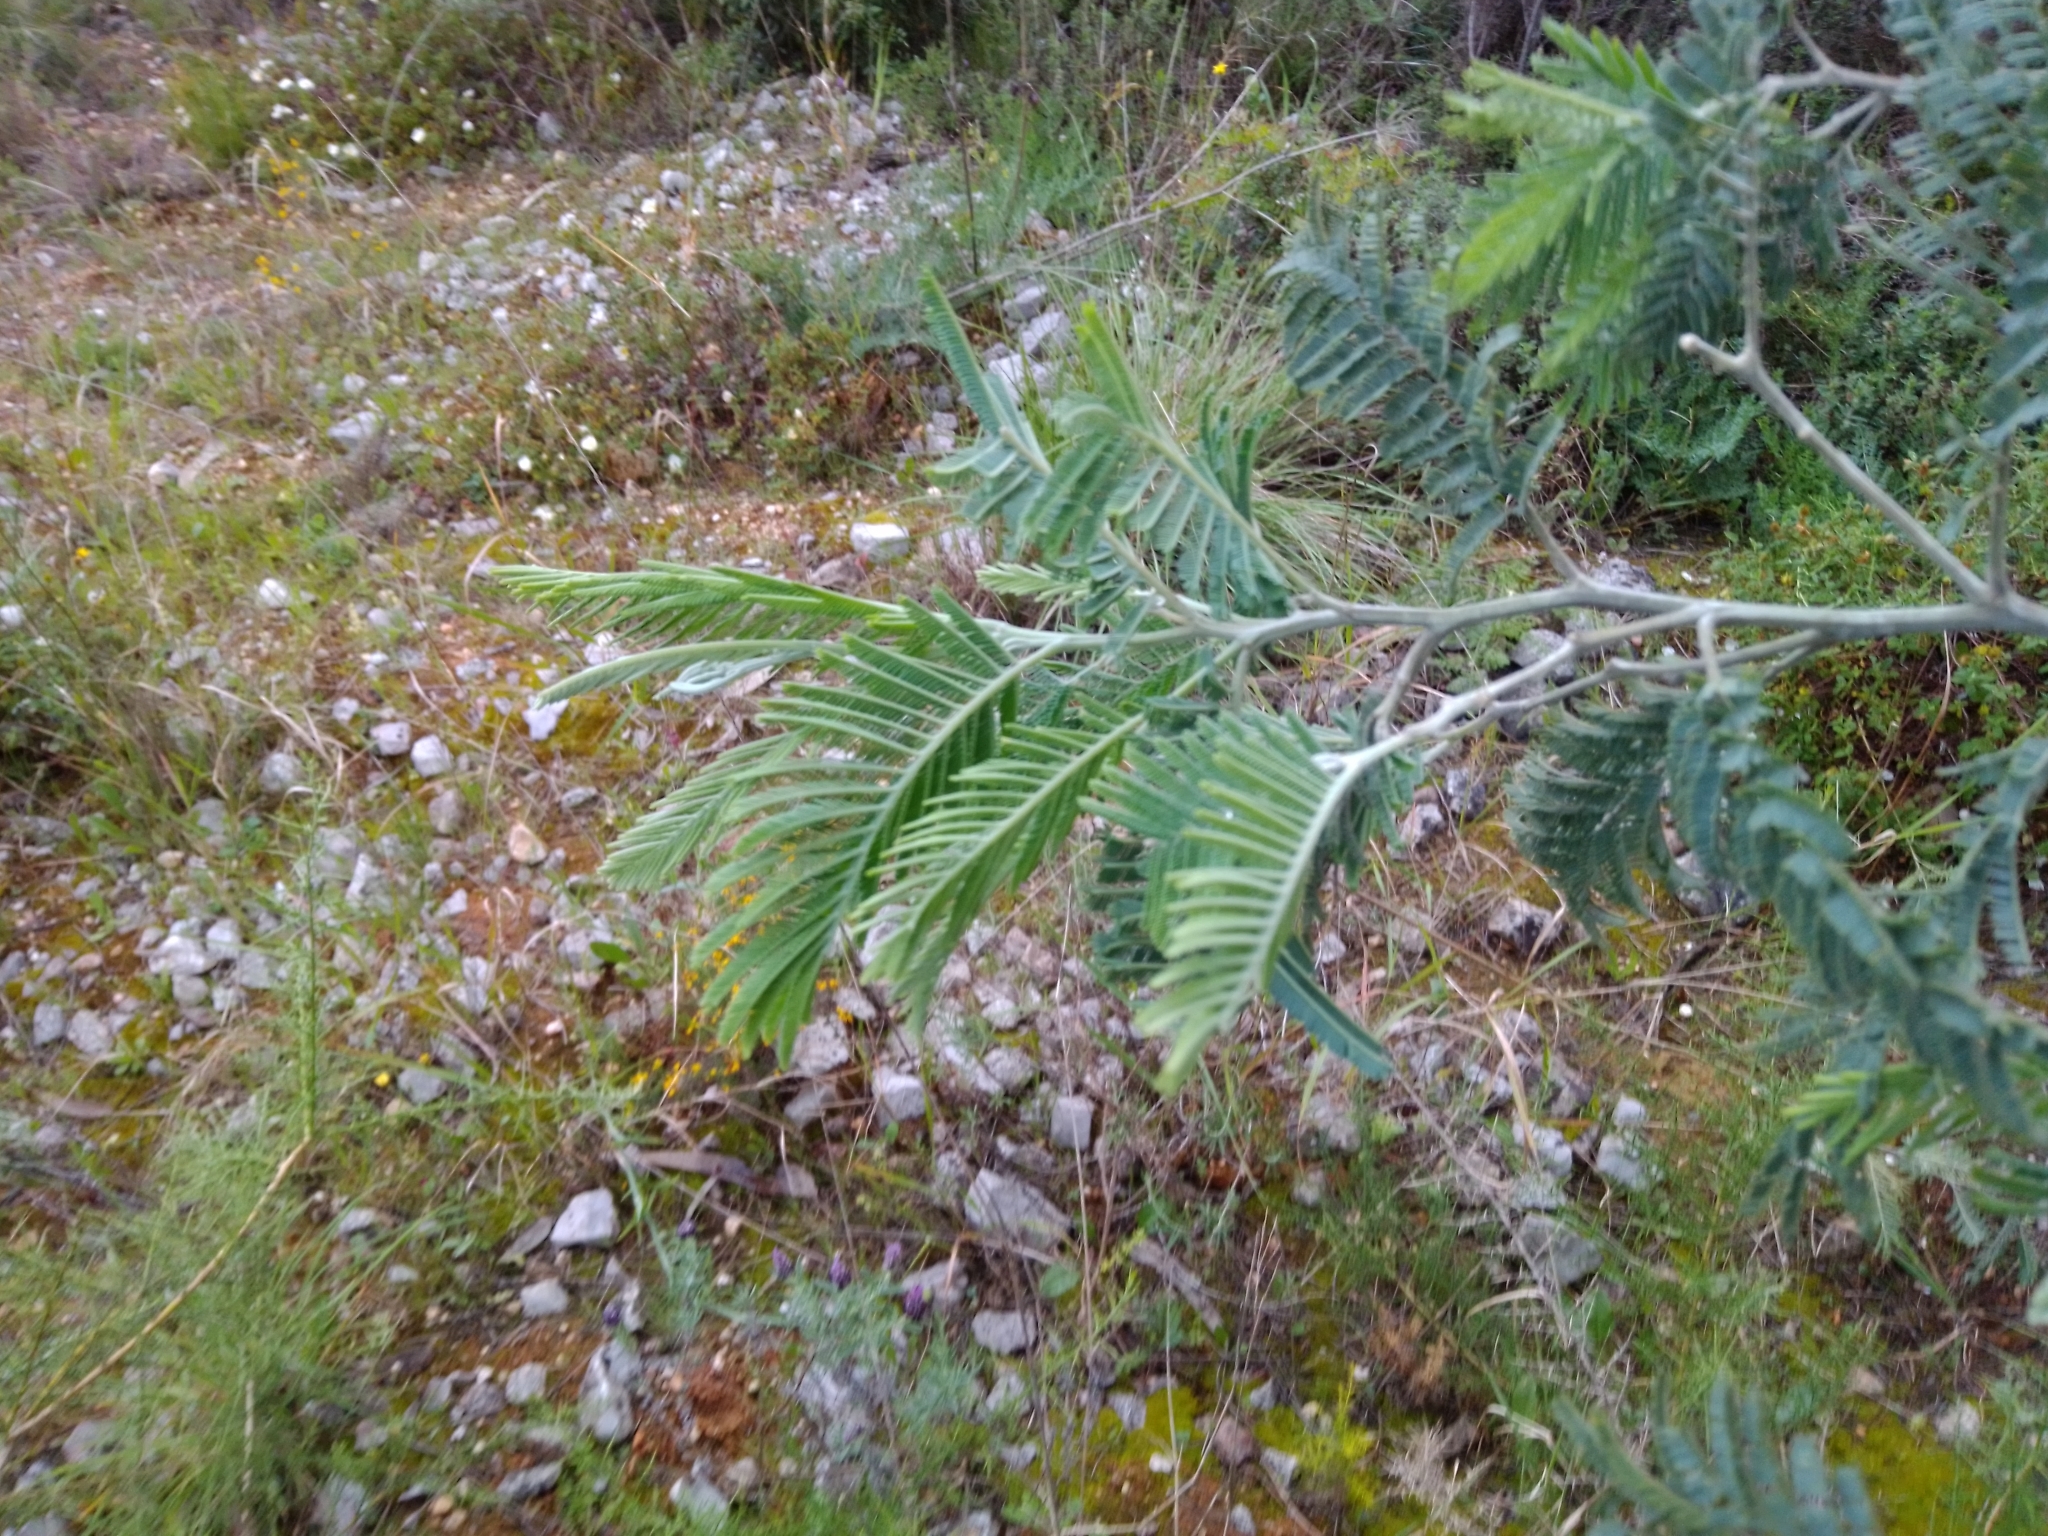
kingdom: Plantae
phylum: Tracheophyta
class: Magnoliopsida
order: Fabales
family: Fabaceae
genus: Acacia
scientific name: Acacia dealbata
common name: Silver wattle
